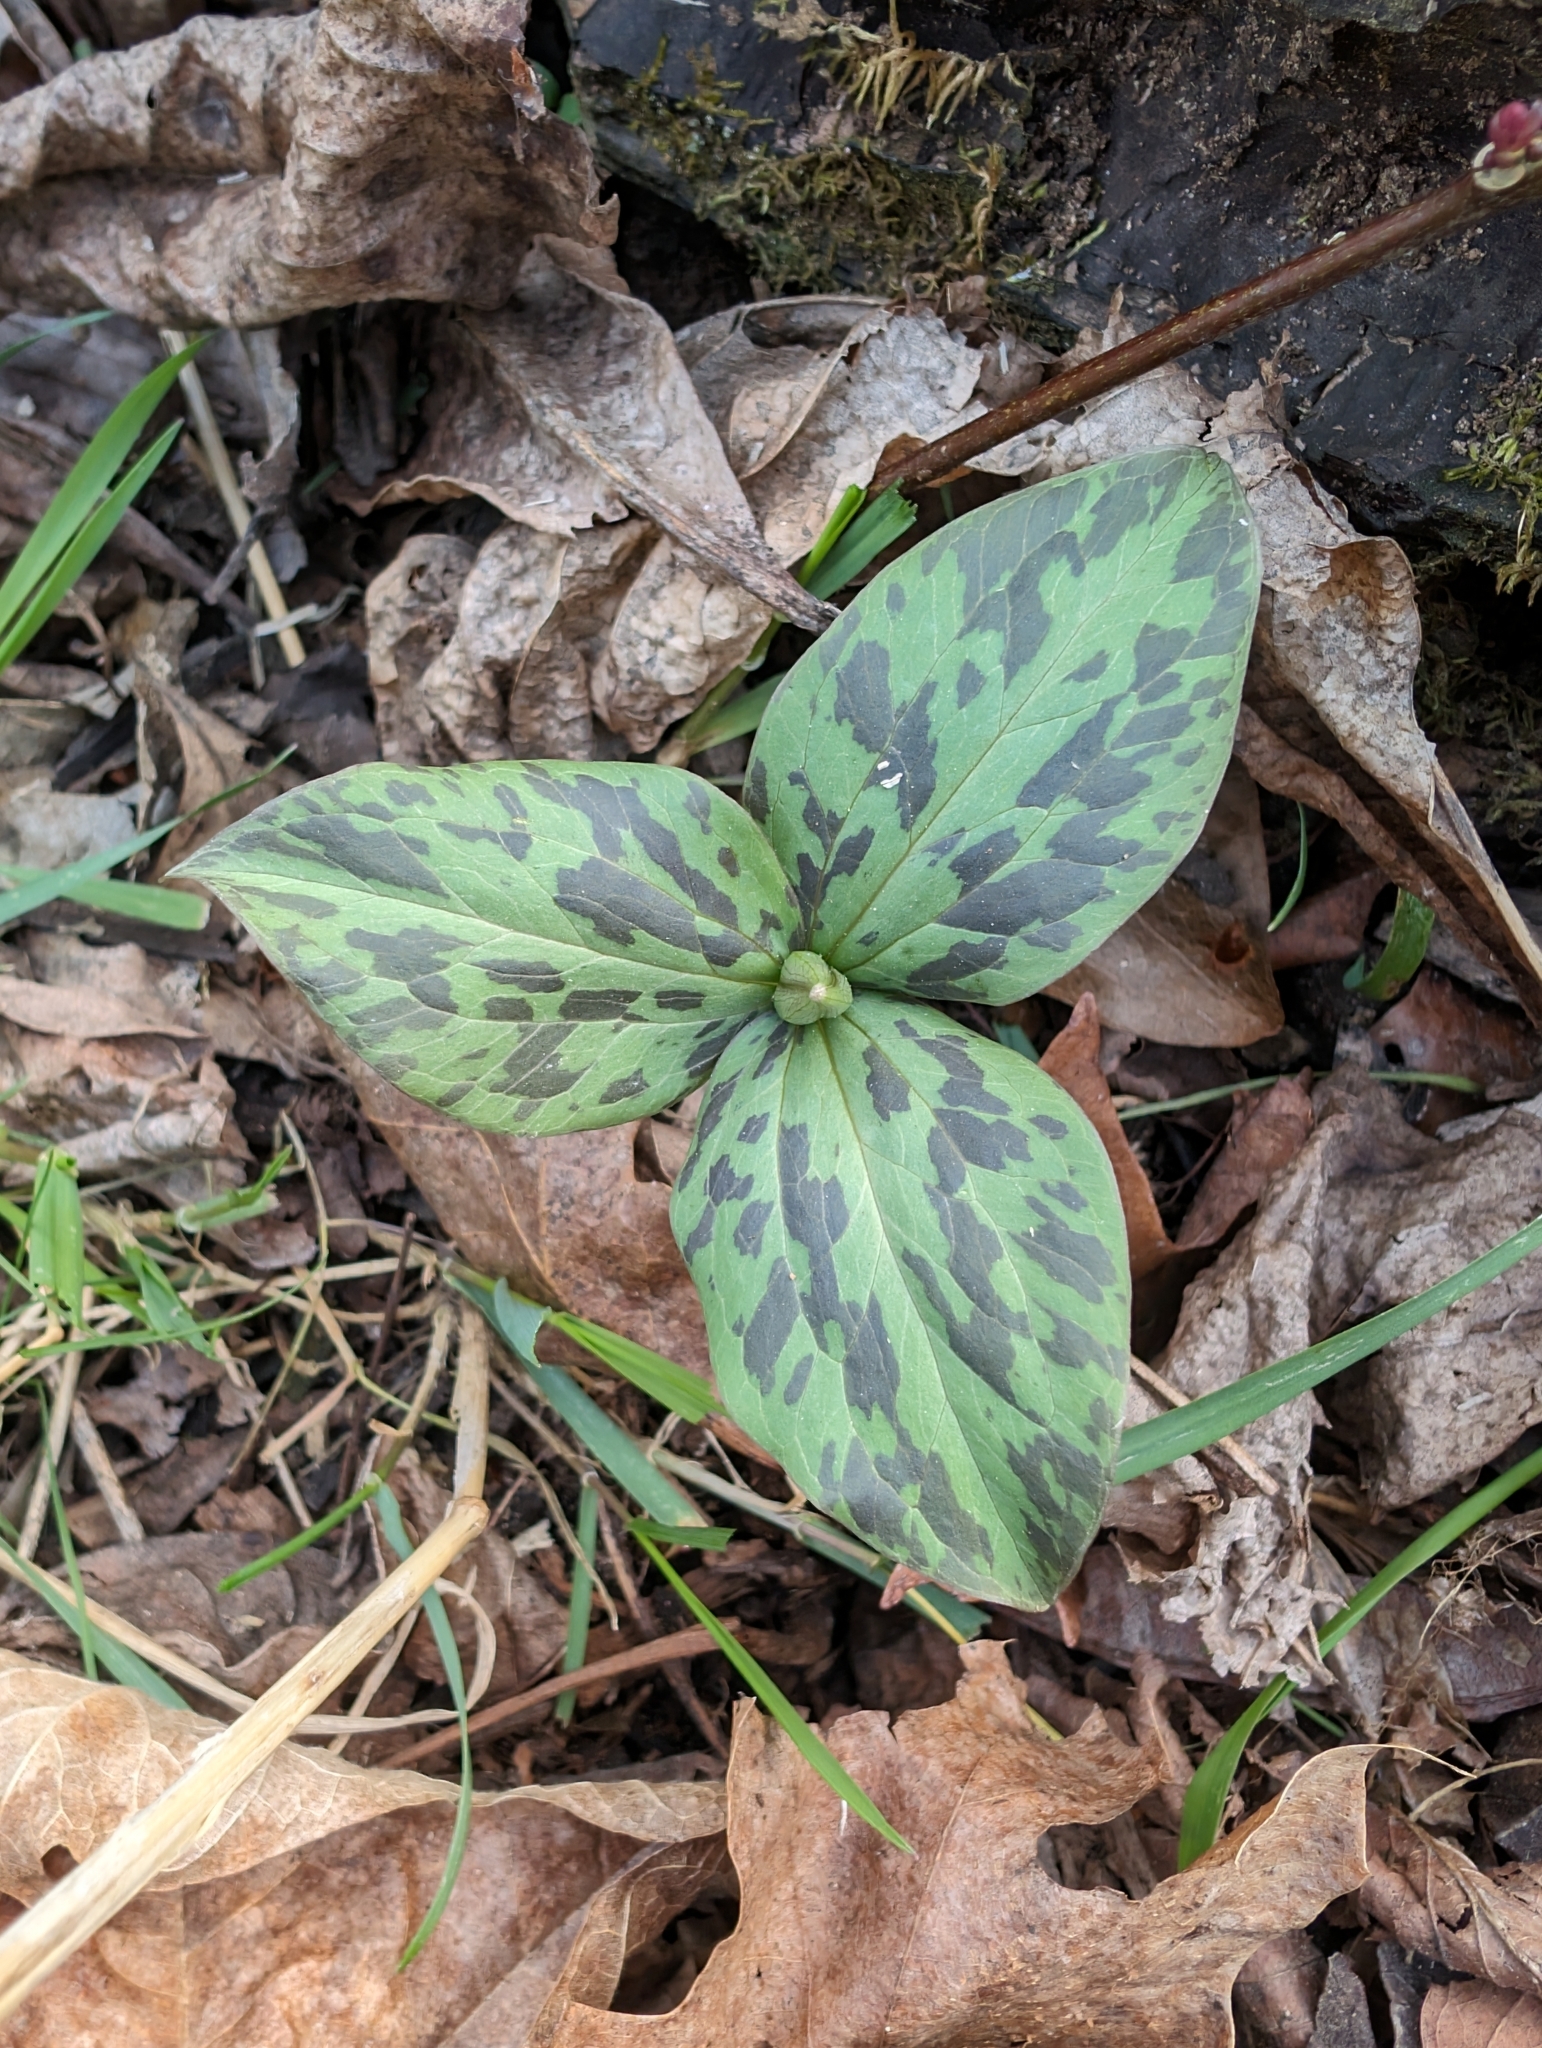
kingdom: Plantae
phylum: Tracheophyta
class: Liliopsida
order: Liliales
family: Melanthiaceae
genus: Trillium
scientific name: Trillium recurvatum
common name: Bloody butcher
